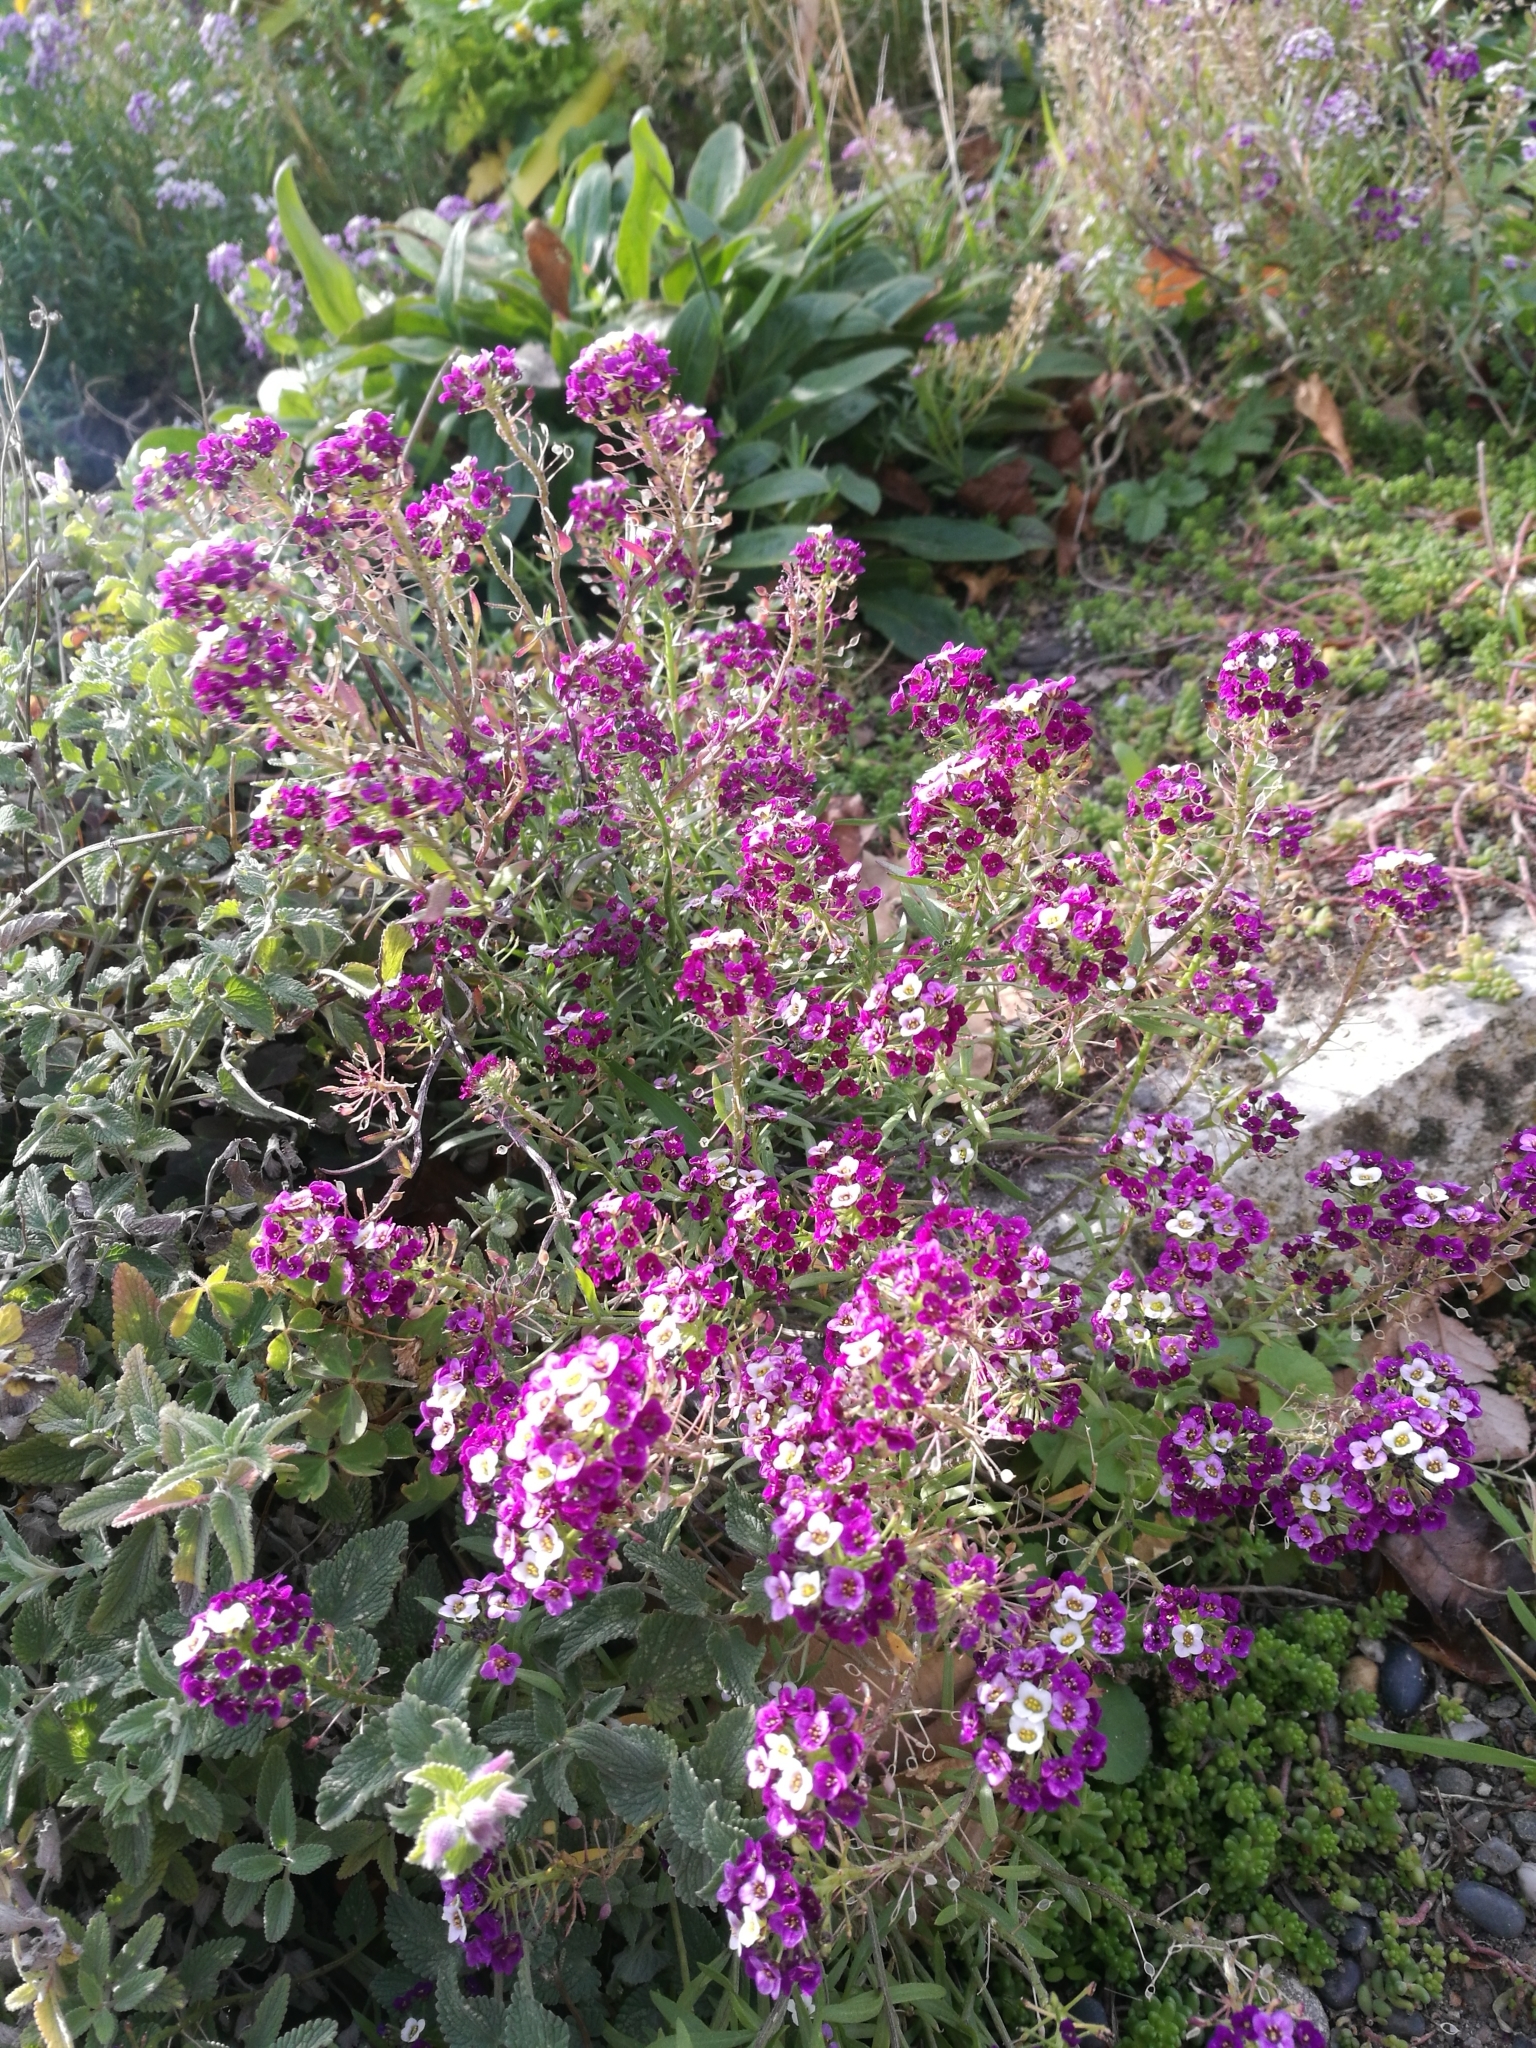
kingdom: Plantae
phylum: Tracheophyta
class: Magnoliopsida
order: Brassicales
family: Brassicaceae
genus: Lobularia
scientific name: Lobularia maritima
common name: Sweet alison
